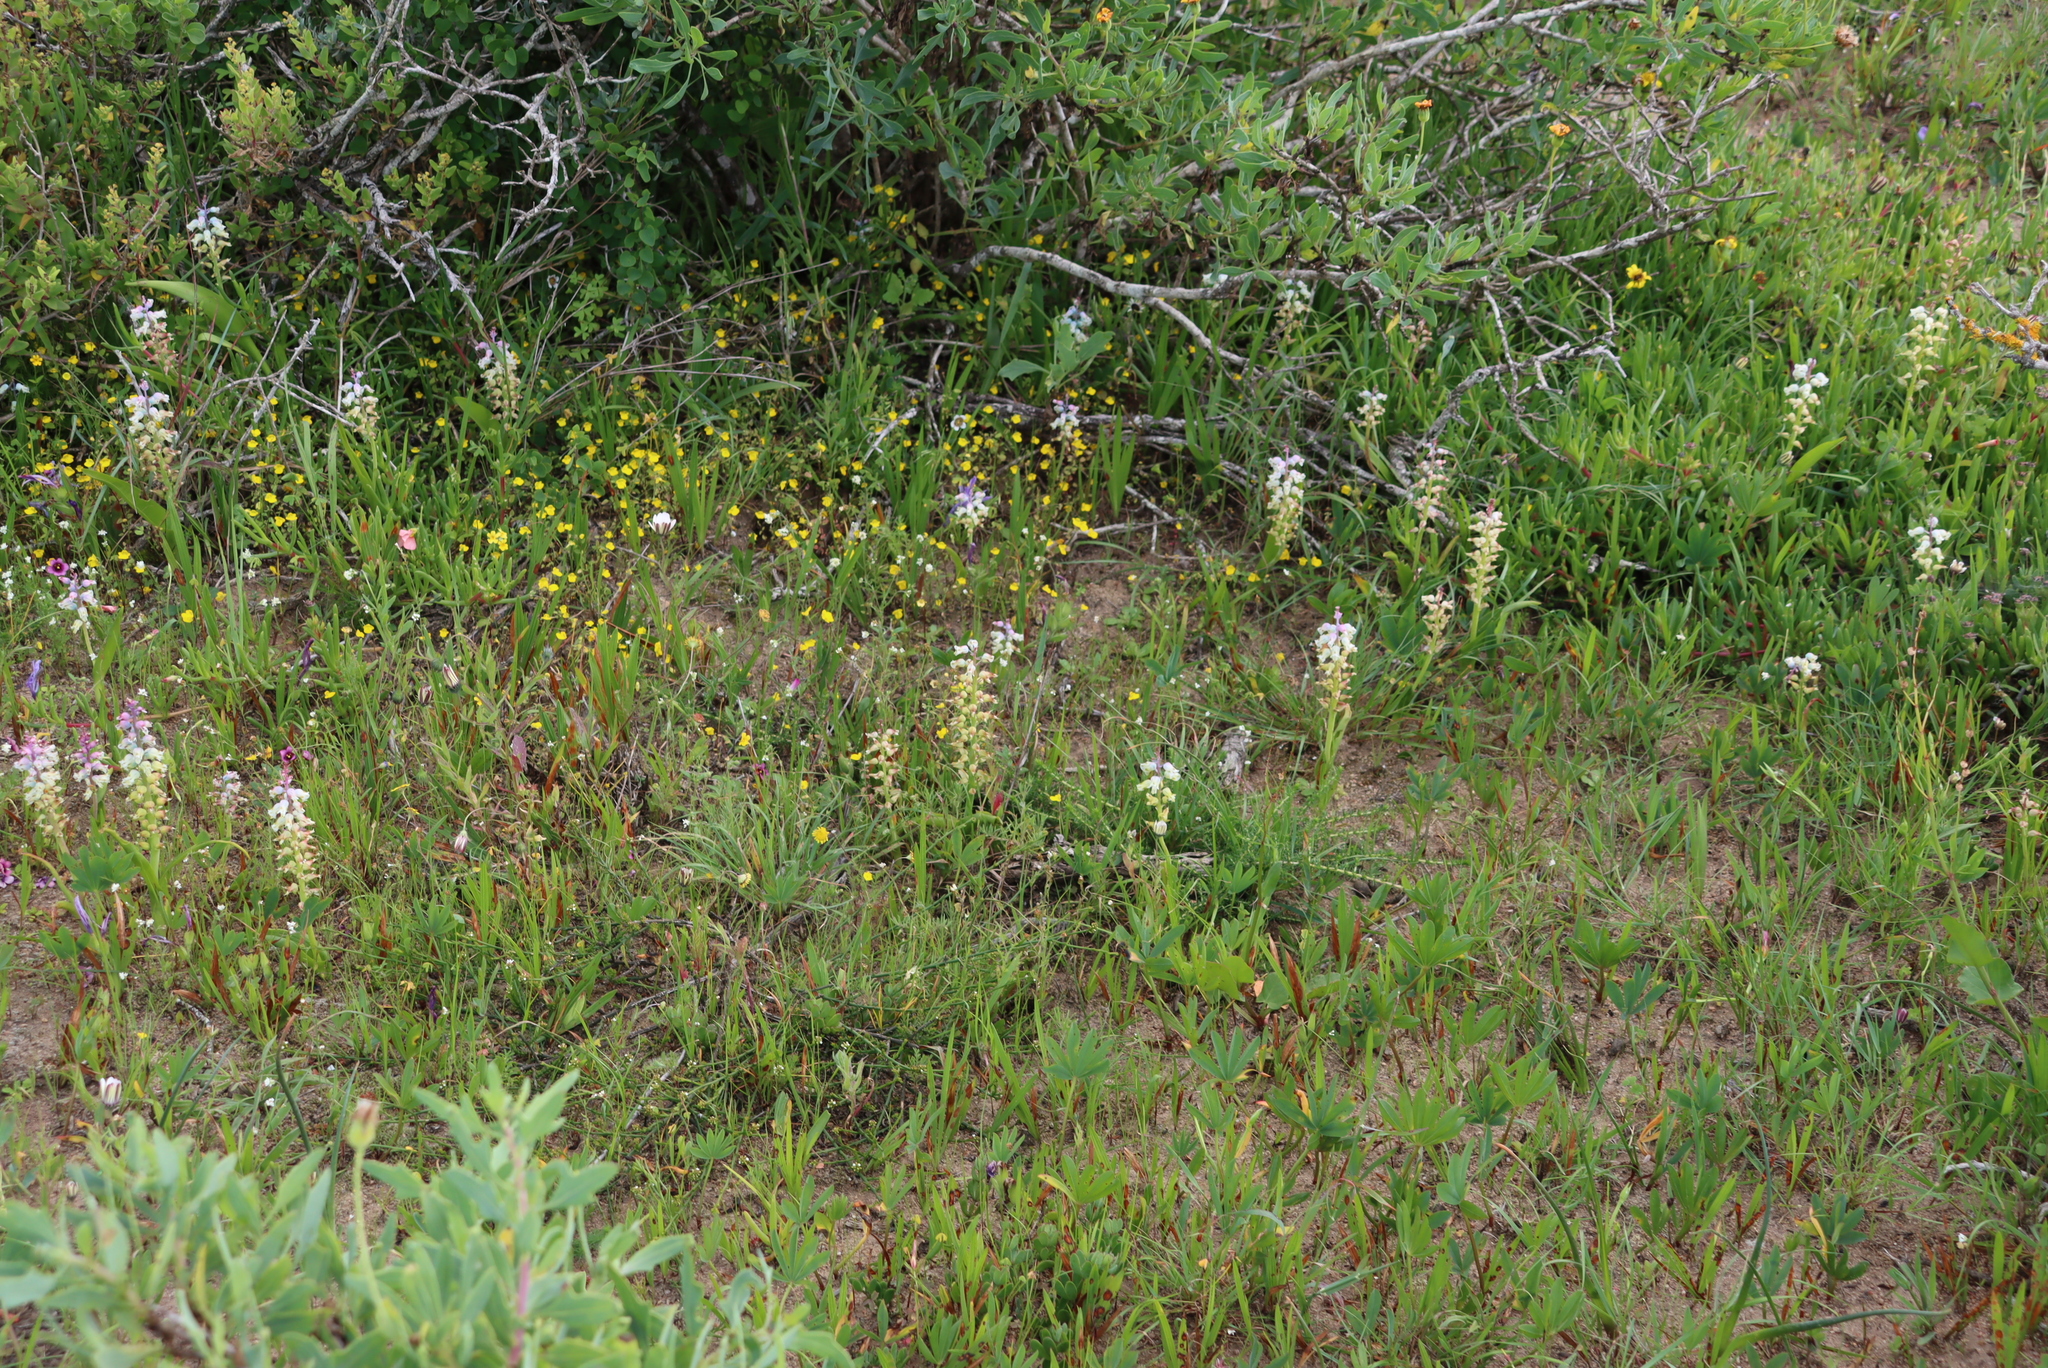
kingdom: Plantae
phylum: Tracheophyta
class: Liliopsida
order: Asparagales
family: Asparagaceae
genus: Lachenalia
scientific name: Lachenalia pallida
